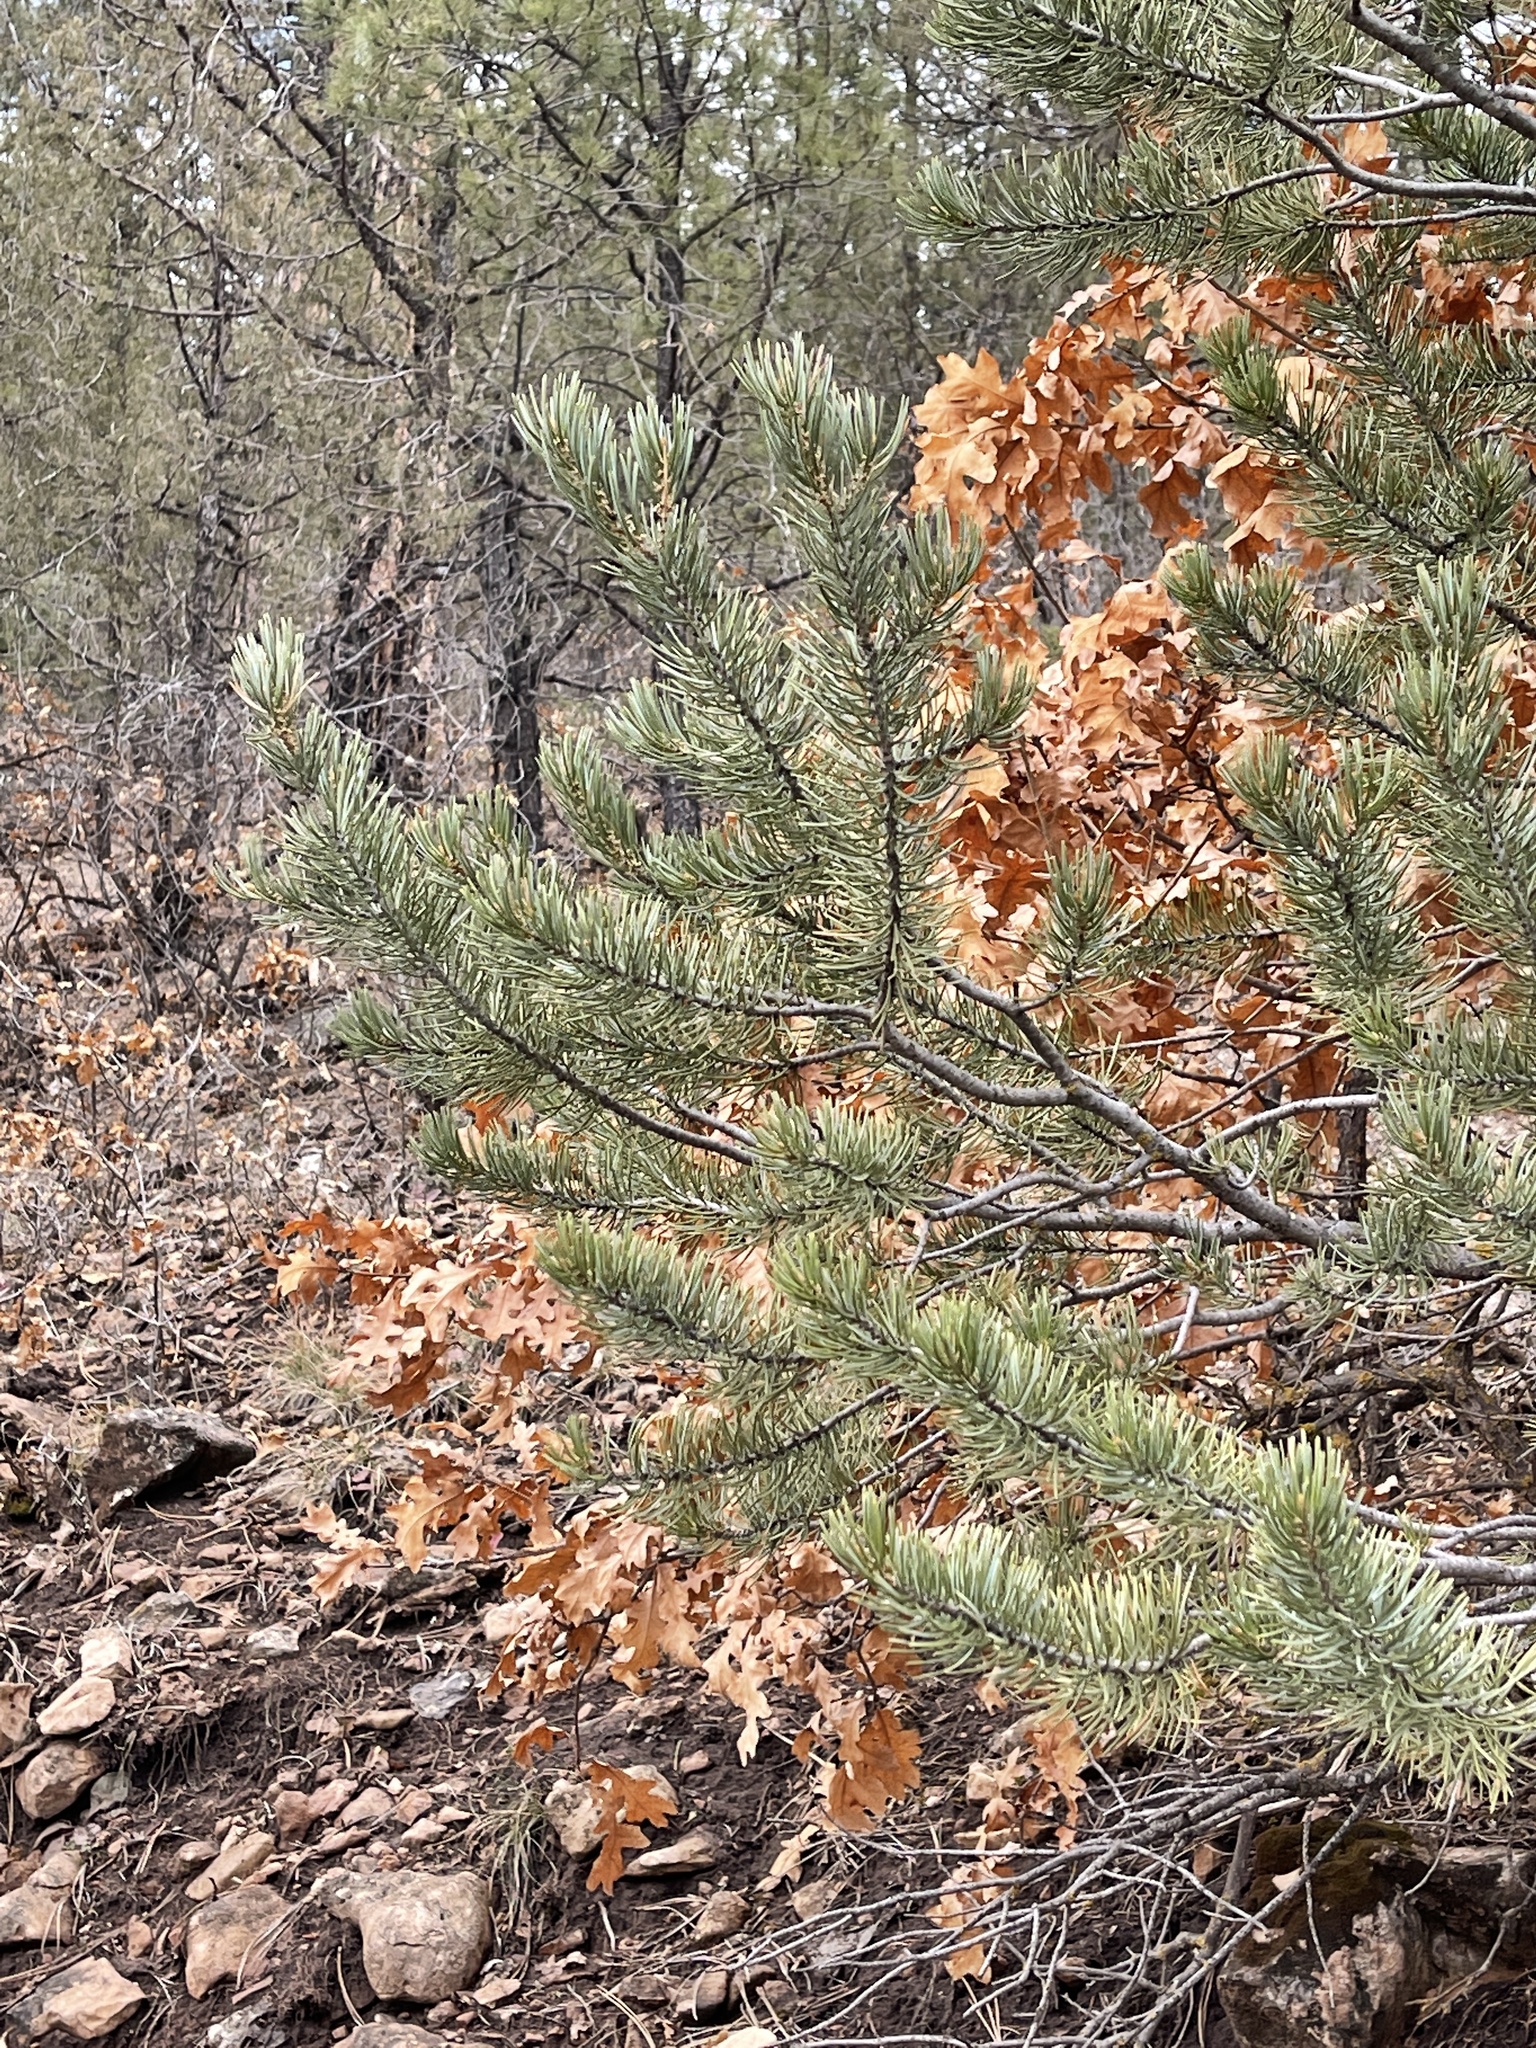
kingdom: Plantae
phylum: Tracheophyta
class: Pinopsida
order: Pinales
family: Pinaceae
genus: Pinus
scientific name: Pinus edulis
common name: Colorado pinyon
